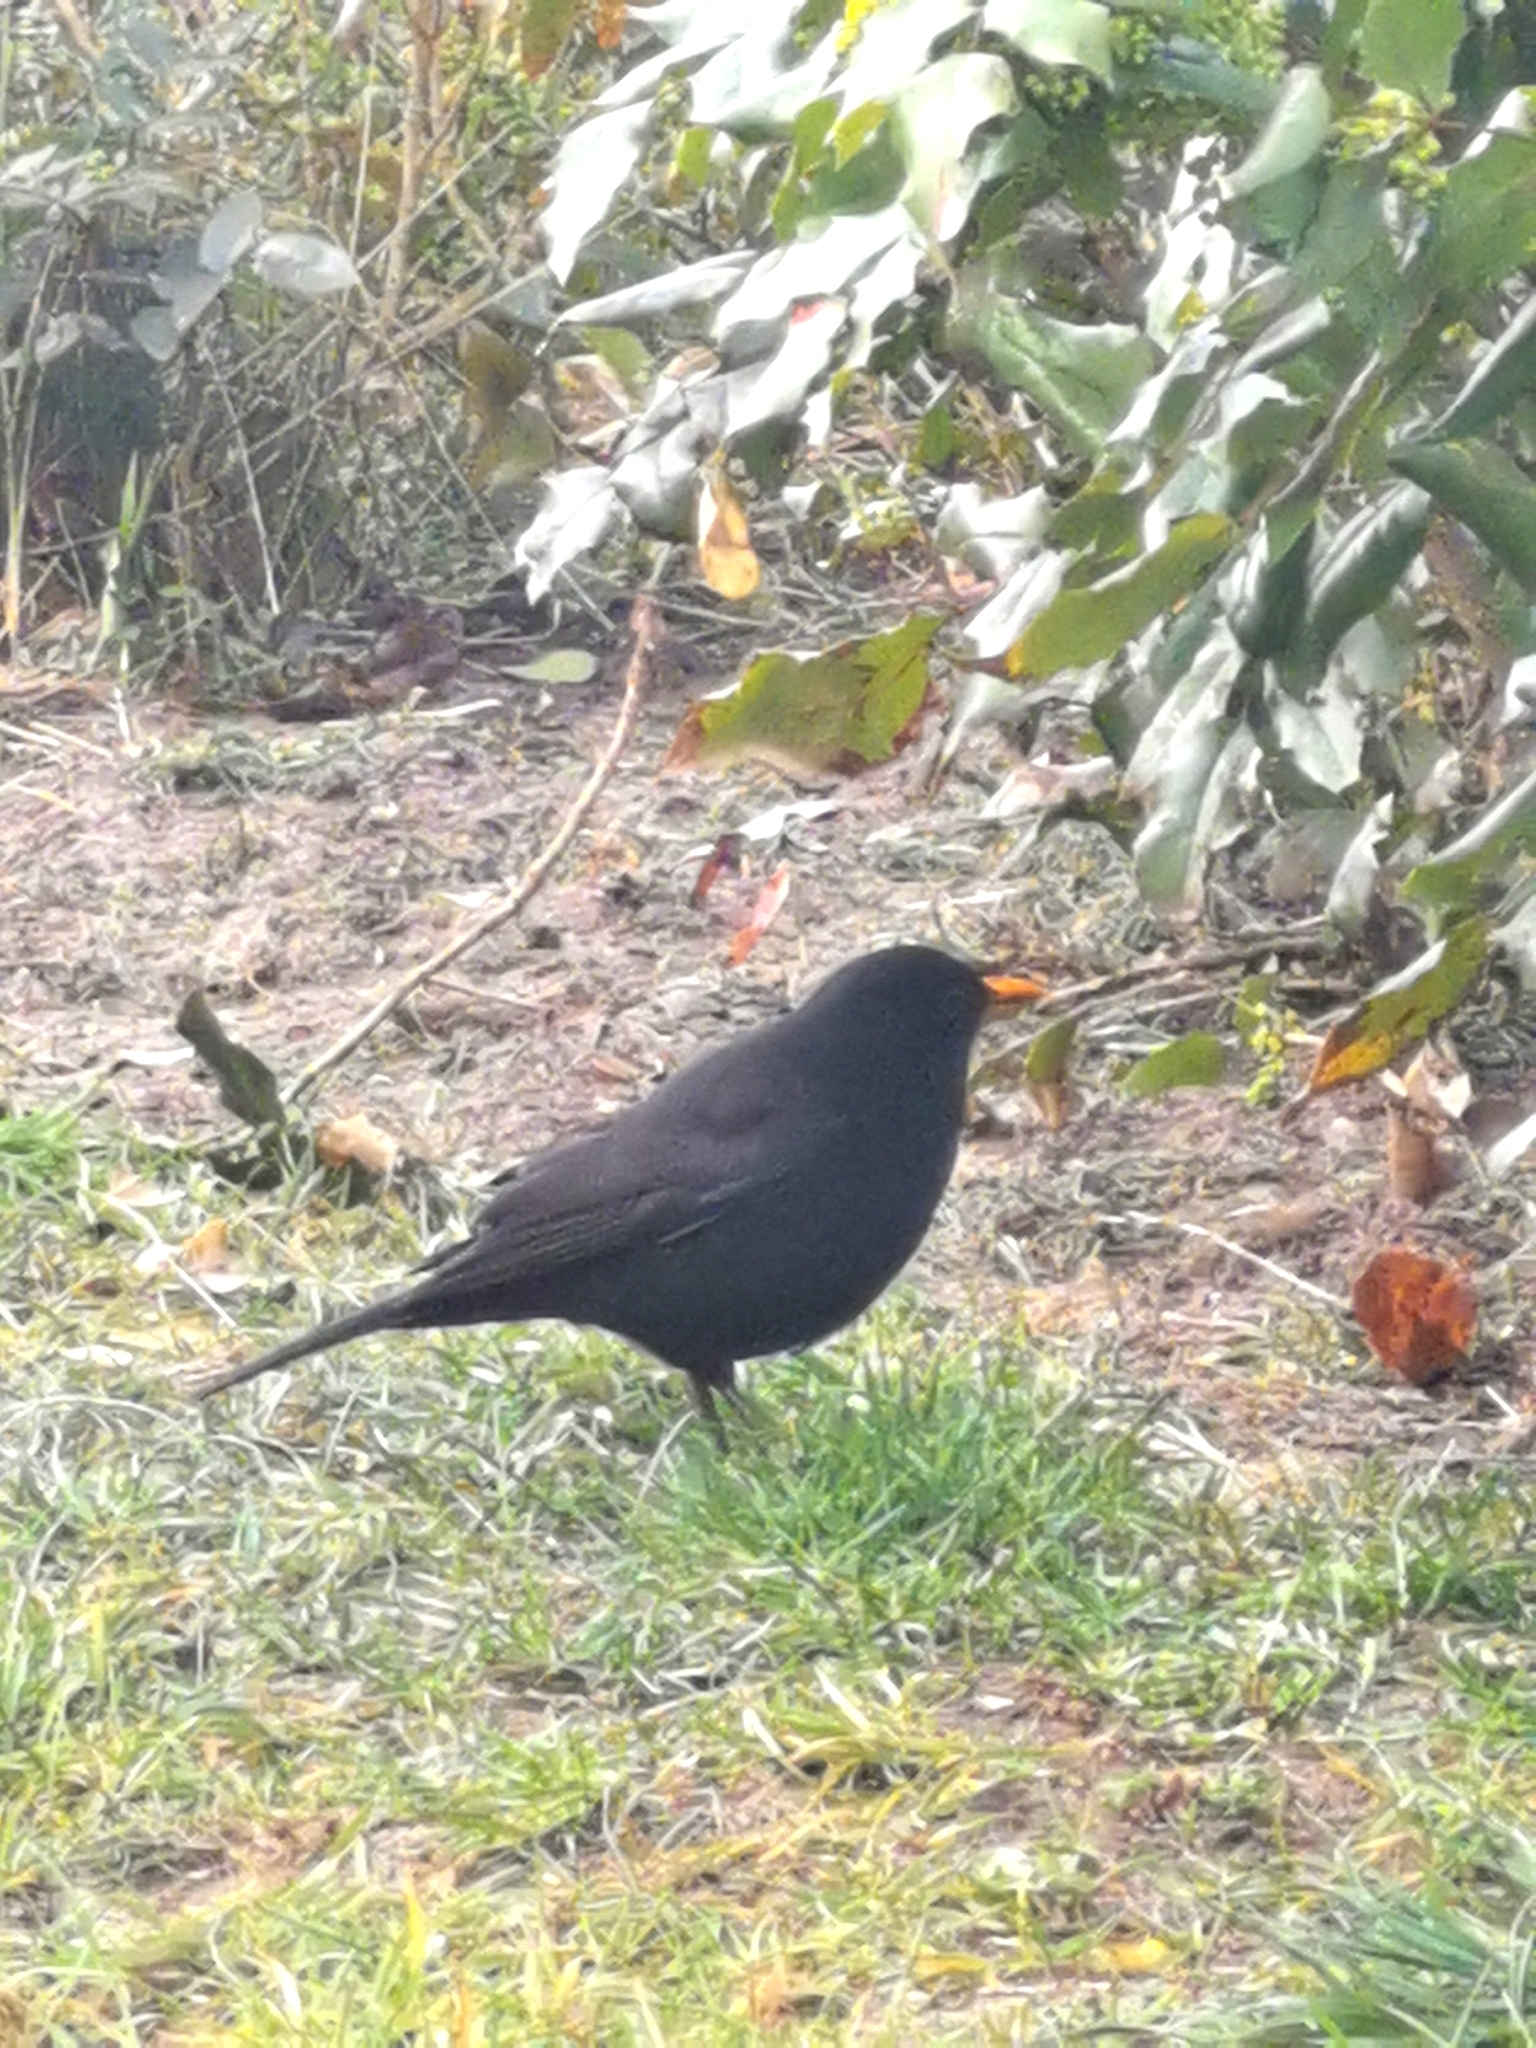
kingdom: Animalia
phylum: Chordata
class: Aves
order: Passeriformes
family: Turdidae
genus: Turdus
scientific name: Turdus merula
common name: Common blackbird
